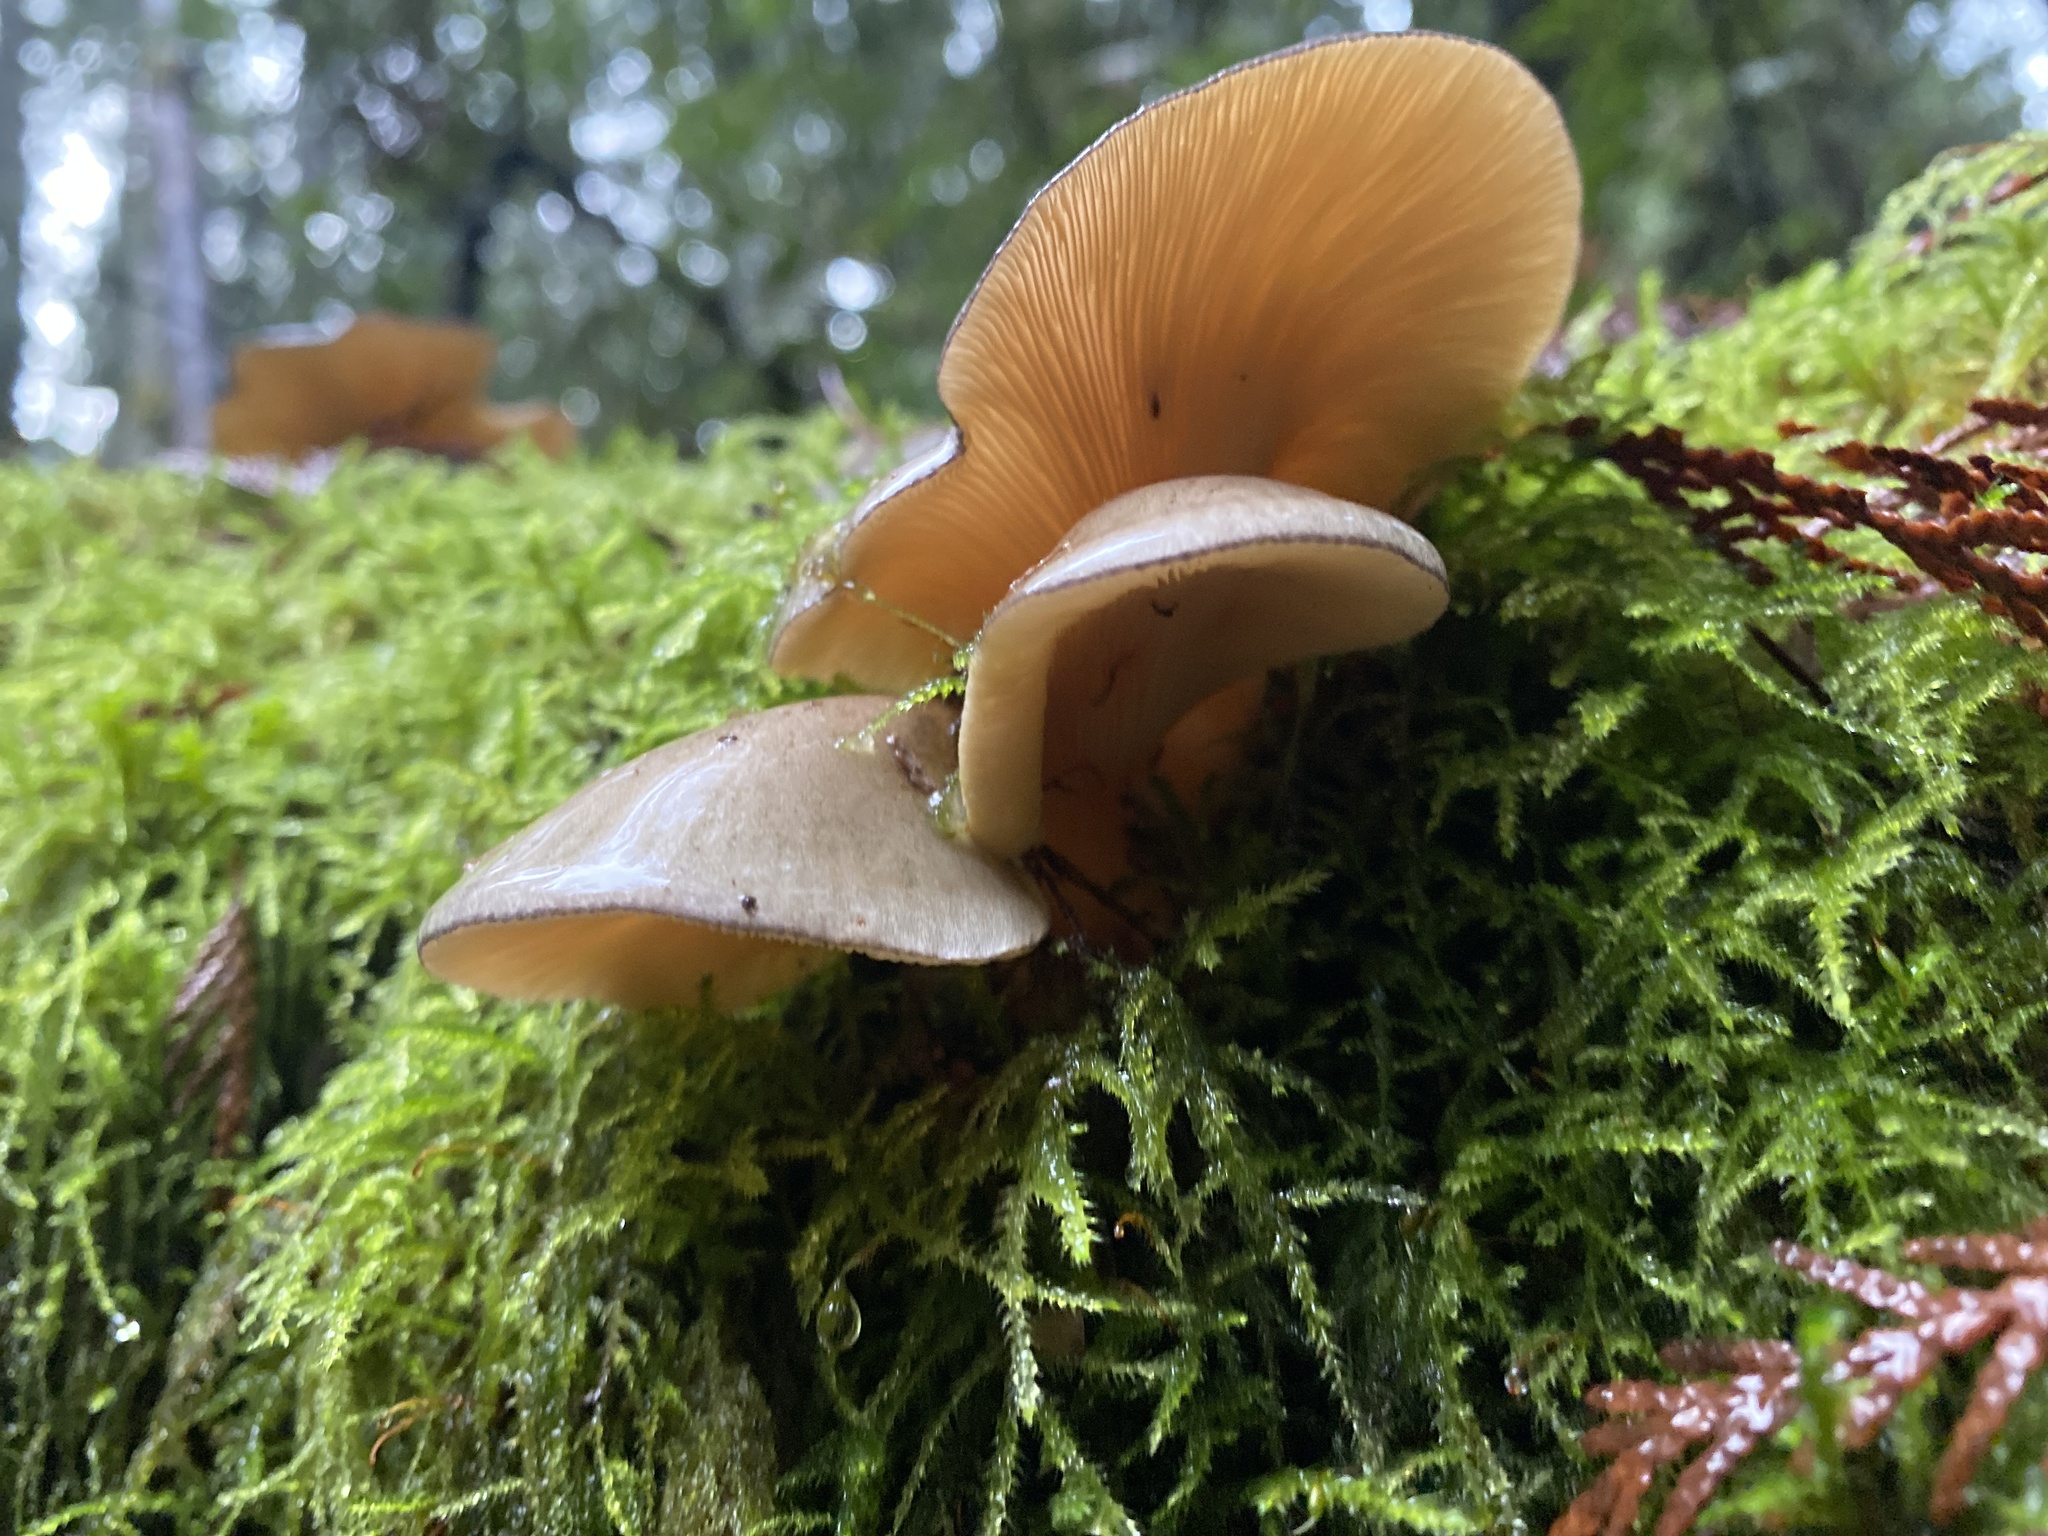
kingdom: Fungi
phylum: Basidiomycota
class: Agaricomycetes
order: Agaricales
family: Sarcomyxaceae
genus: Sarcomyxa
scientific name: Sarcomyxa serotina
